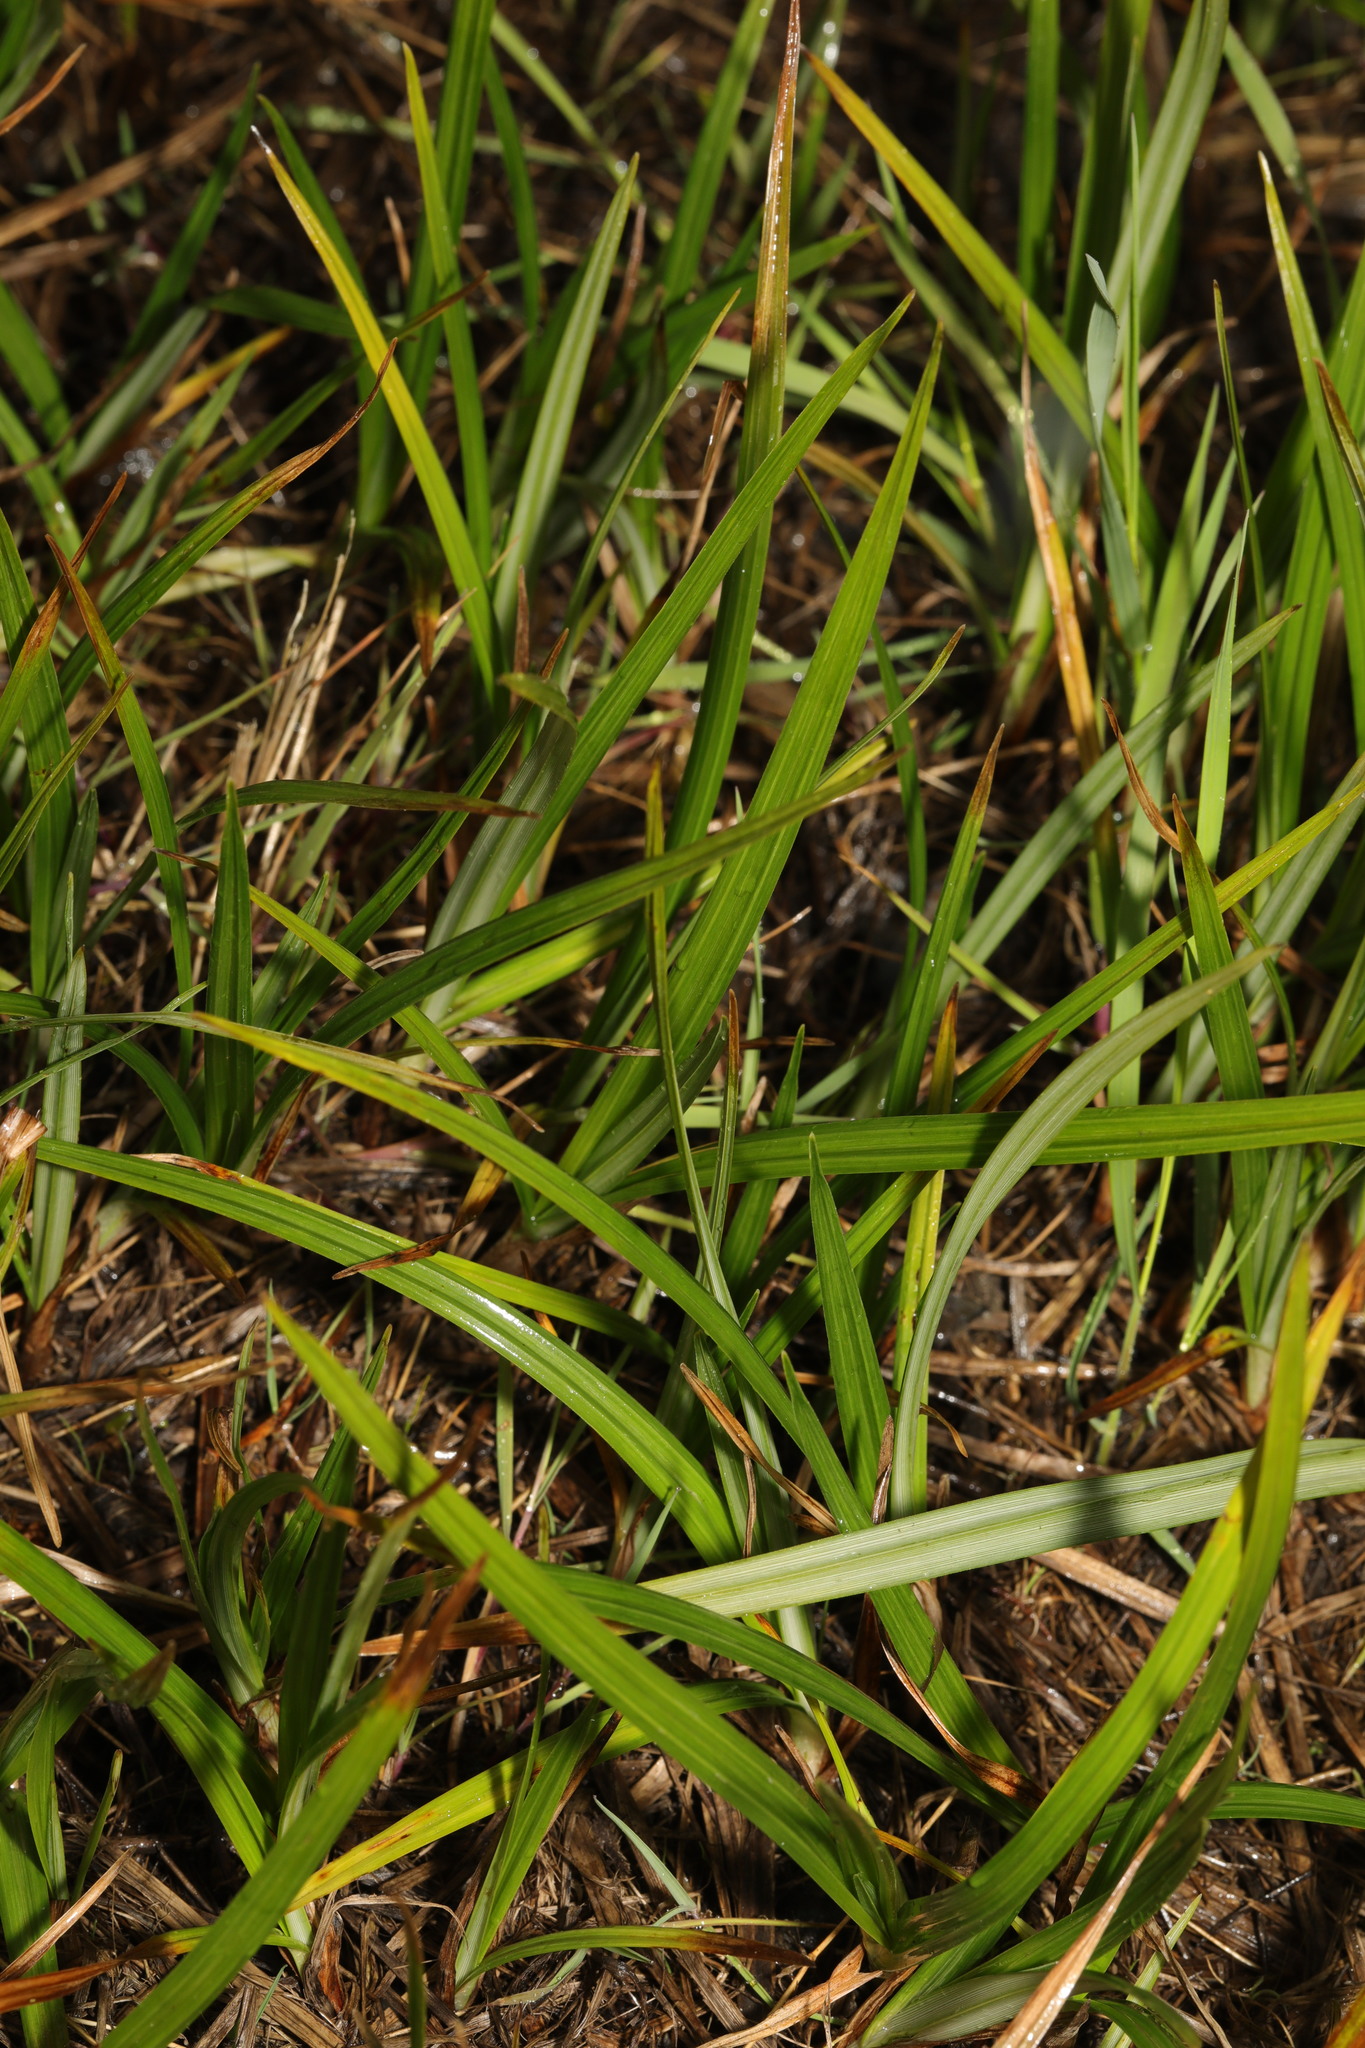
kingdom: Plantae
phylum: Tracheophyta
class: Liliopsida
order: Poales
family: Cyperaceae
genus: Cyperus
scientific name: Cyperus longus
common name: Galingale
